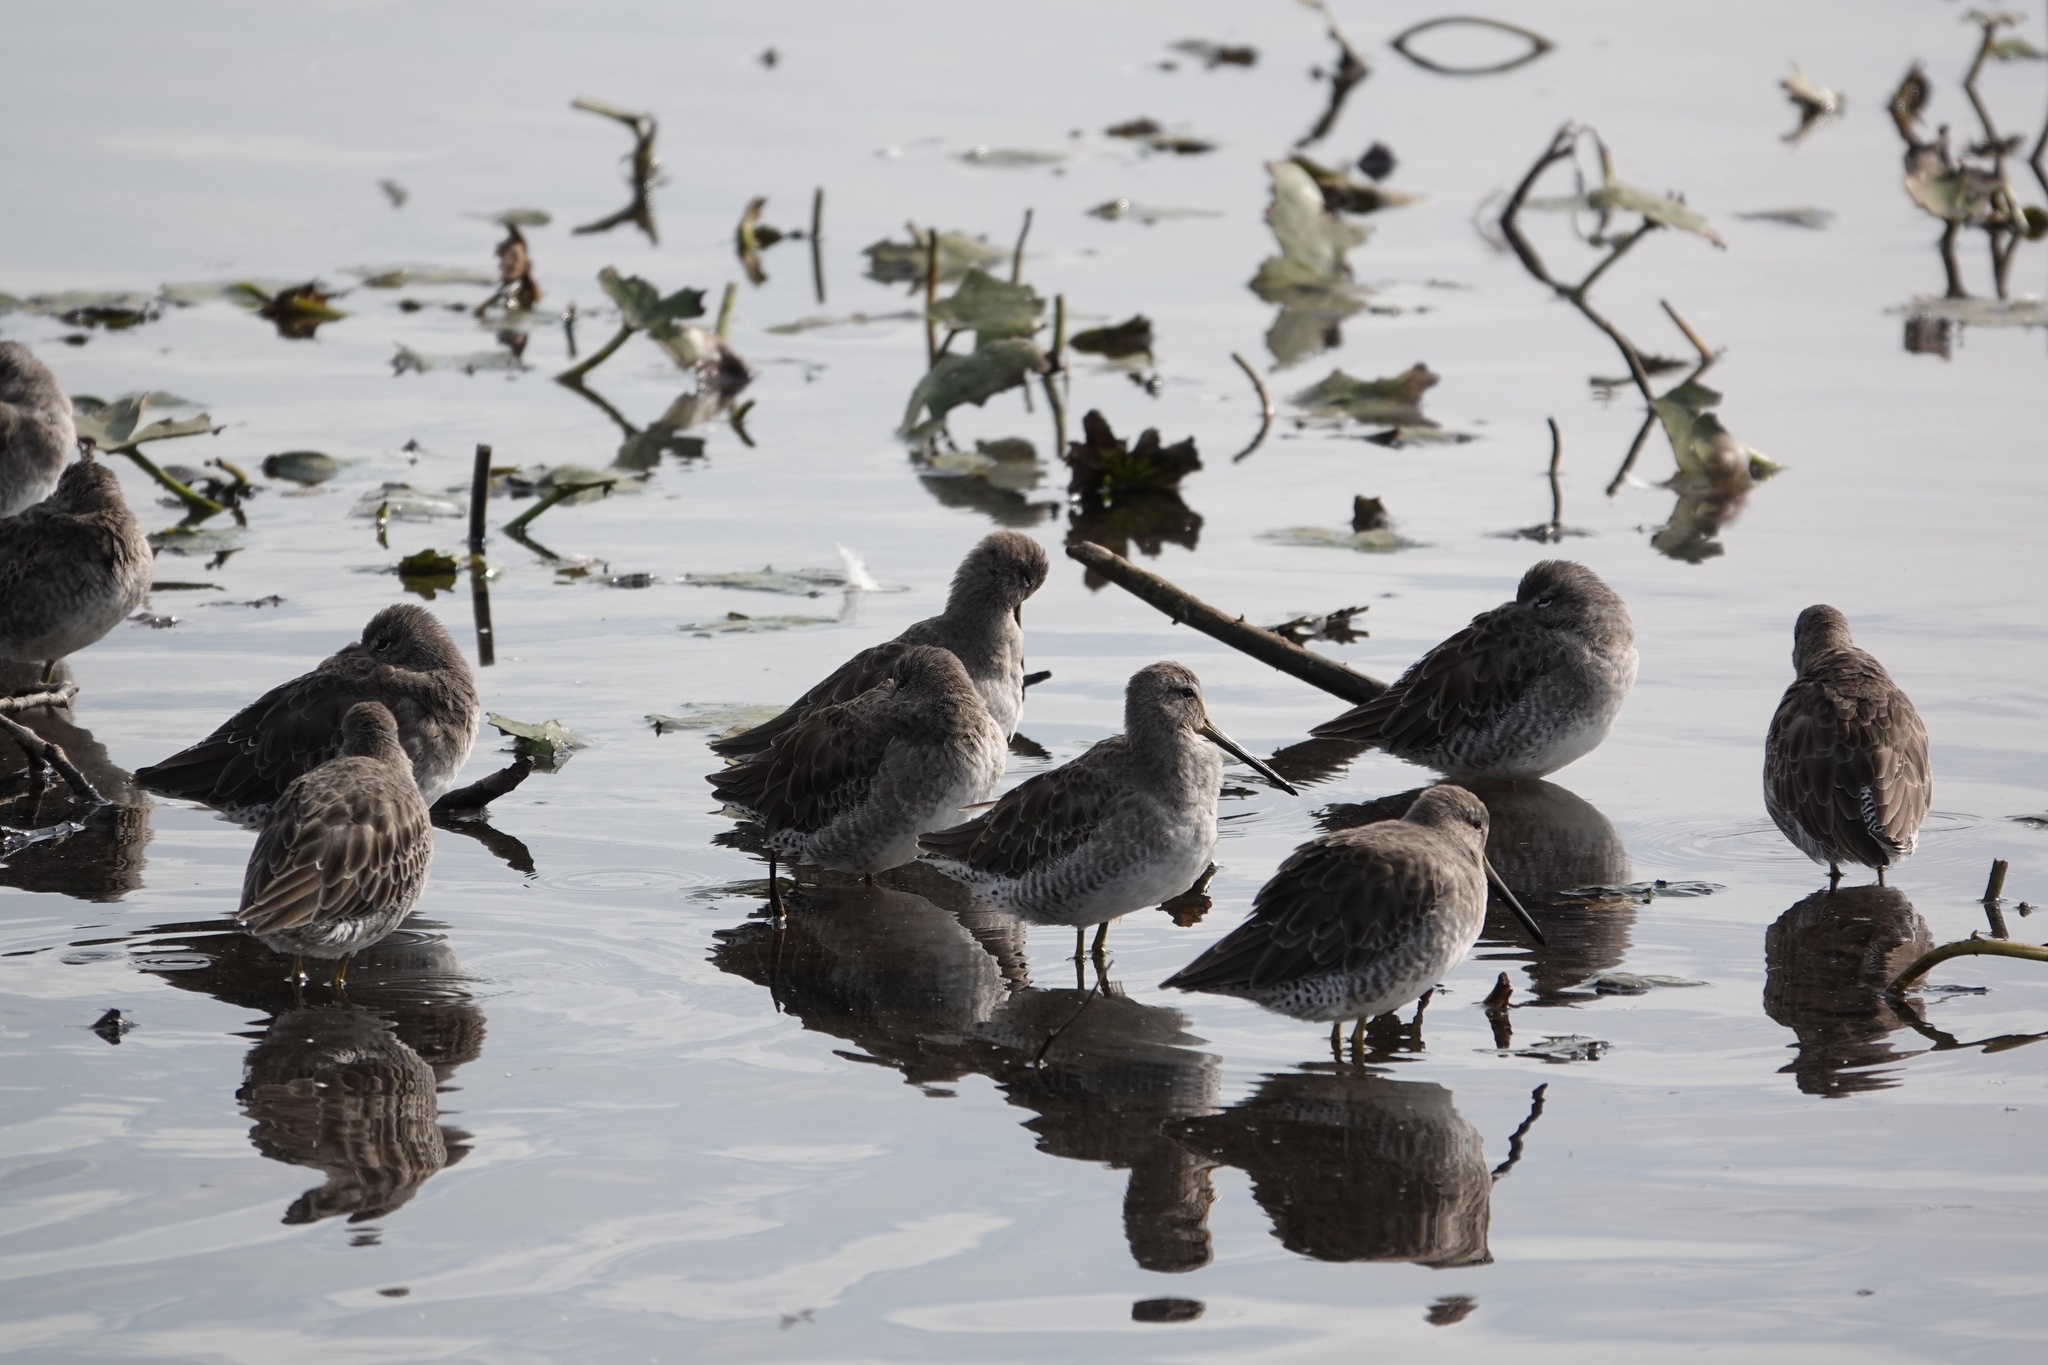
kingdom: Animalia
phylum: Chordata
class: Aves
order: Charadriiformes
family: Scolopacidae
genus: Limnodromus
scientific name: Limnodromus scolopaceus
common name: Long-billed dowitcher
